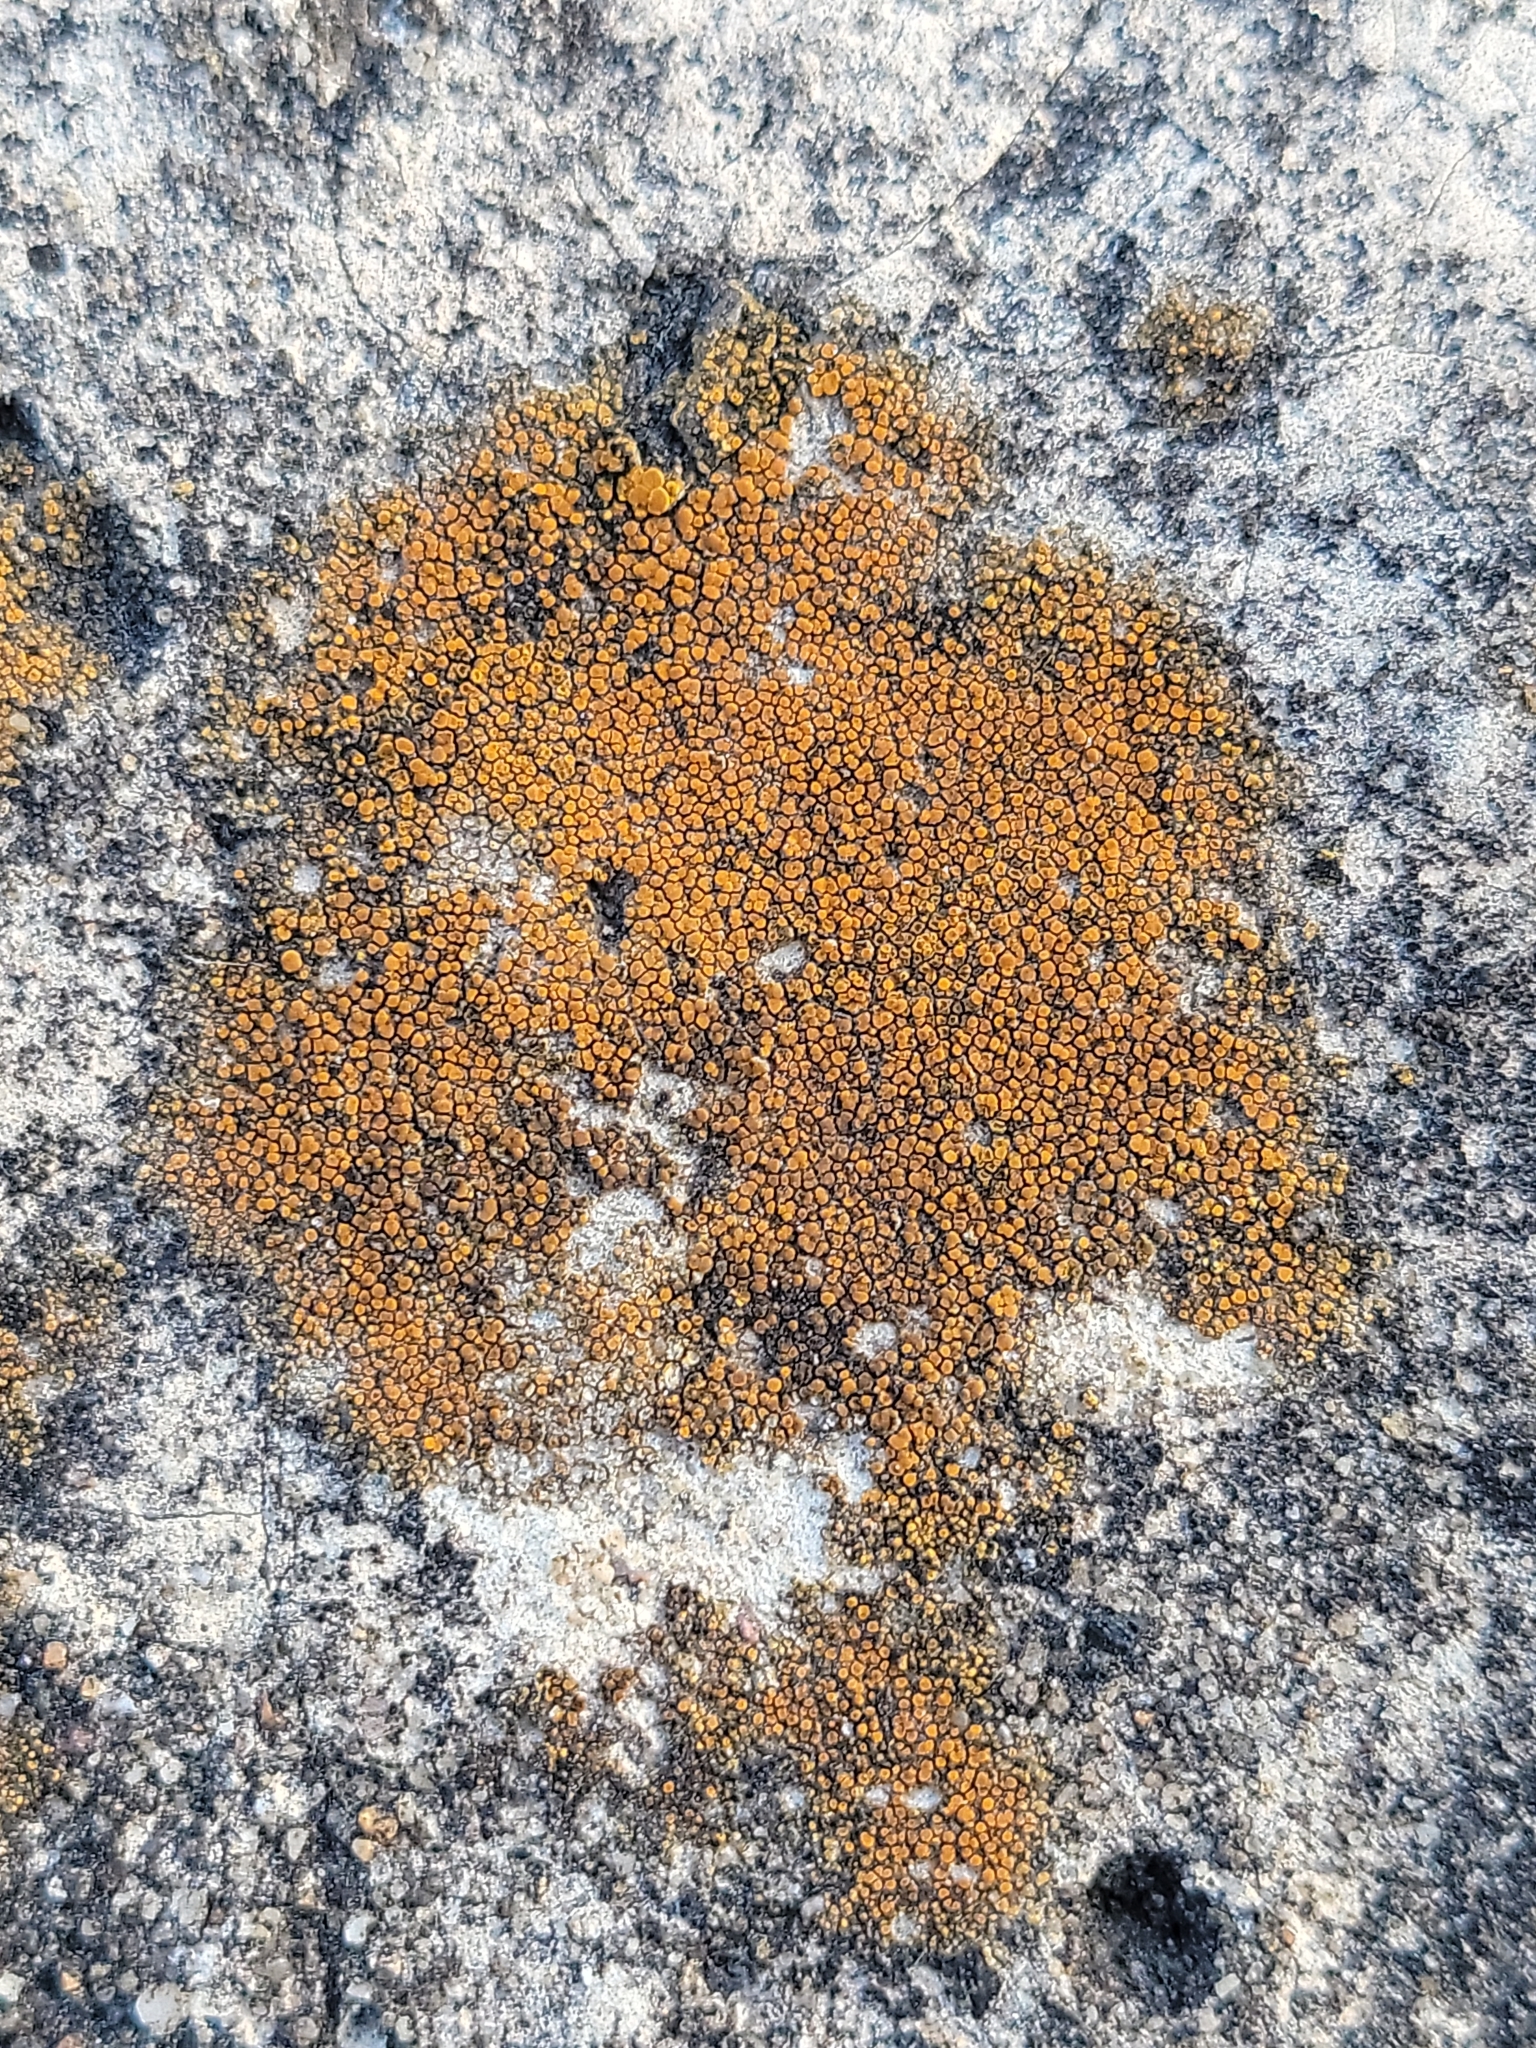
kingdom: Fungi
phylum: Ascomycota
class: Lecanoromycetes
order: Teloschistales
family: Teloschistaceae
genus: Xanthocarpia
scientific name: Xanthocarpia feracissima
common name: Sidewalk firedot
